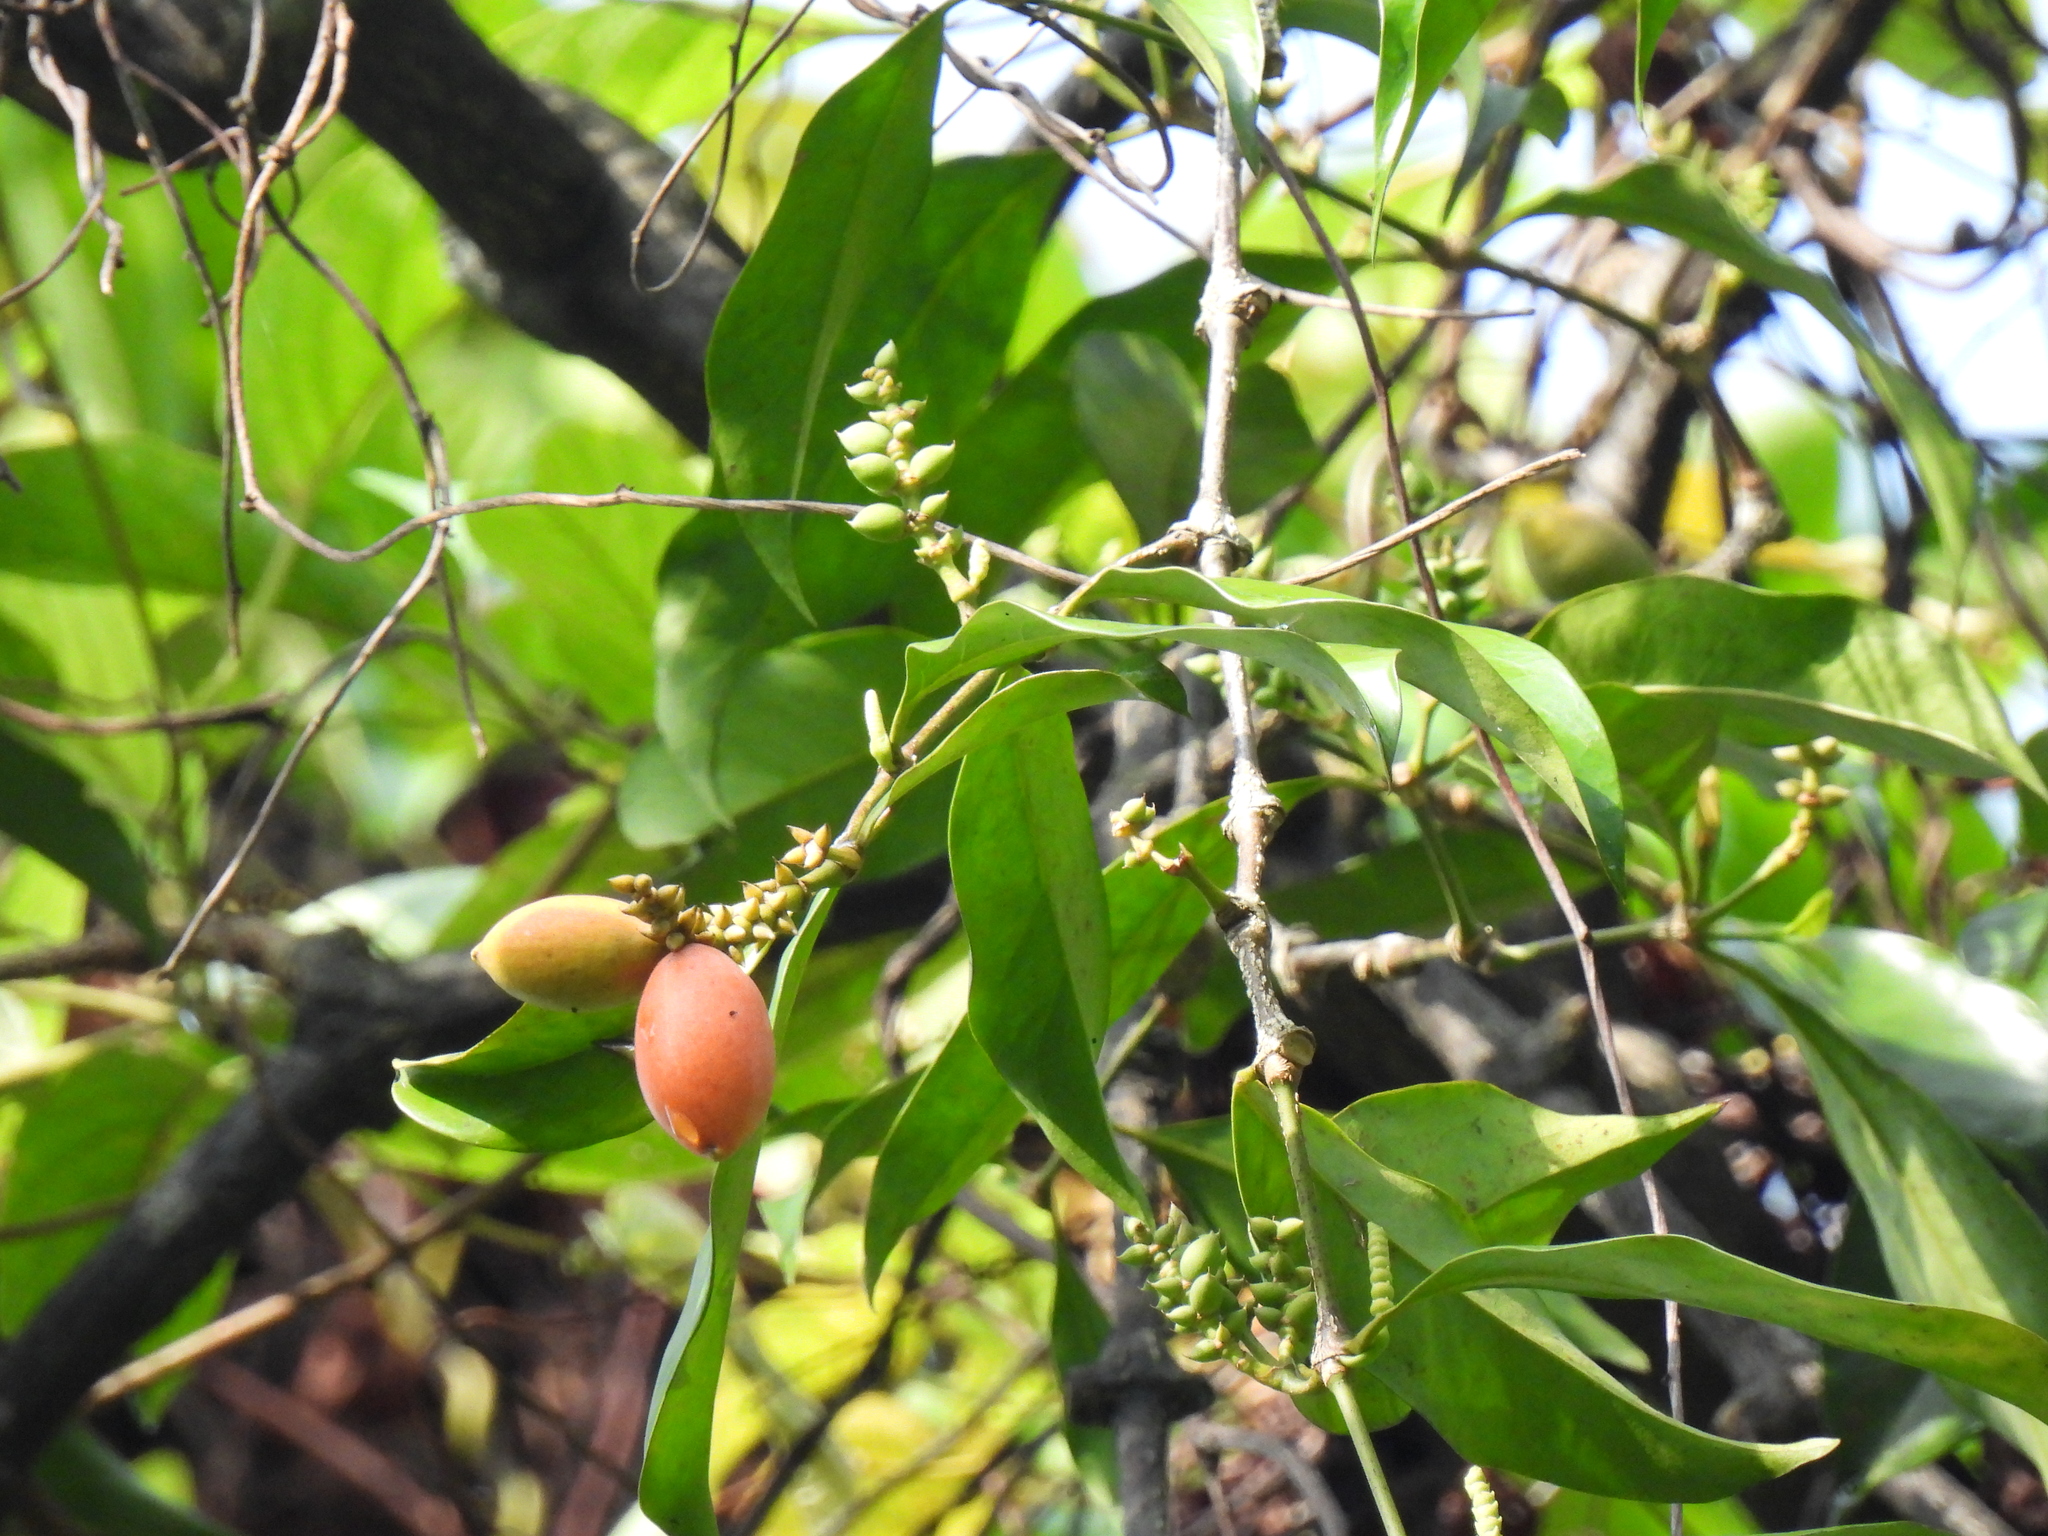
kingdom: Plantae
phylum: Tracheophyta
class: Gnetopsida
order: Gnetales
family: Gnetaceae
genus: Gnetum
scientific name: Gnetum gnemon
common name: Spanish joint-fir
